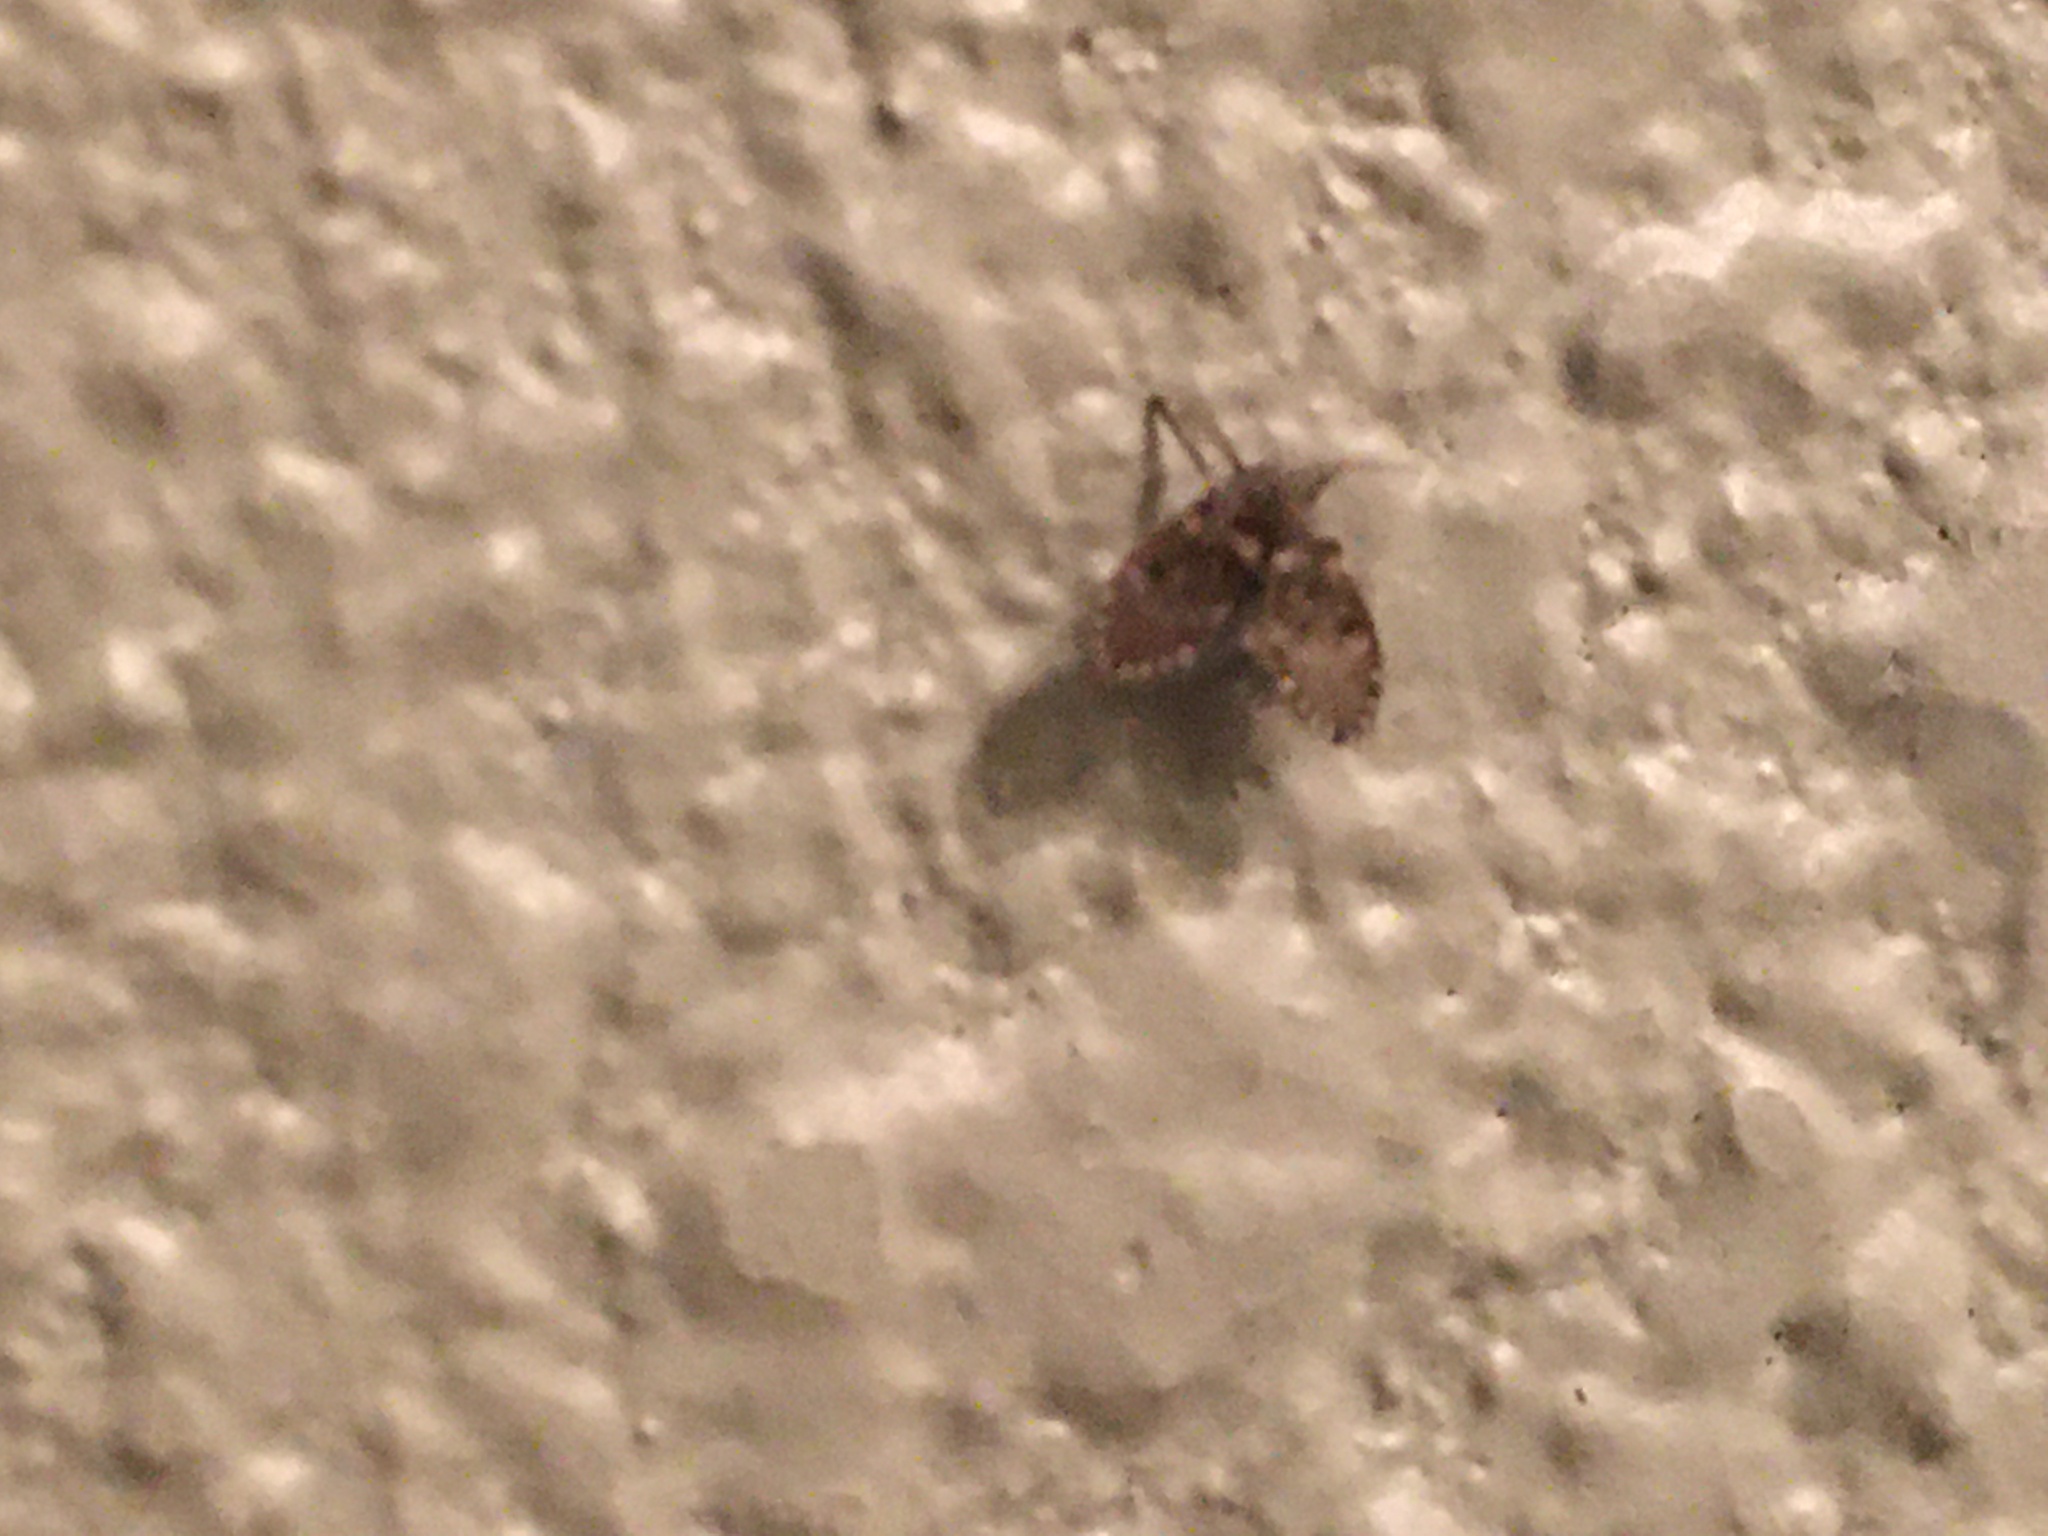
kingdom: Animalia
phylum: Arthropoda
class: Insecta
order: Diptera
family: Psychodidae
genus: Clogmia
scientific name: Clogmia albipunctatus
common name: White-spotted moth fly
